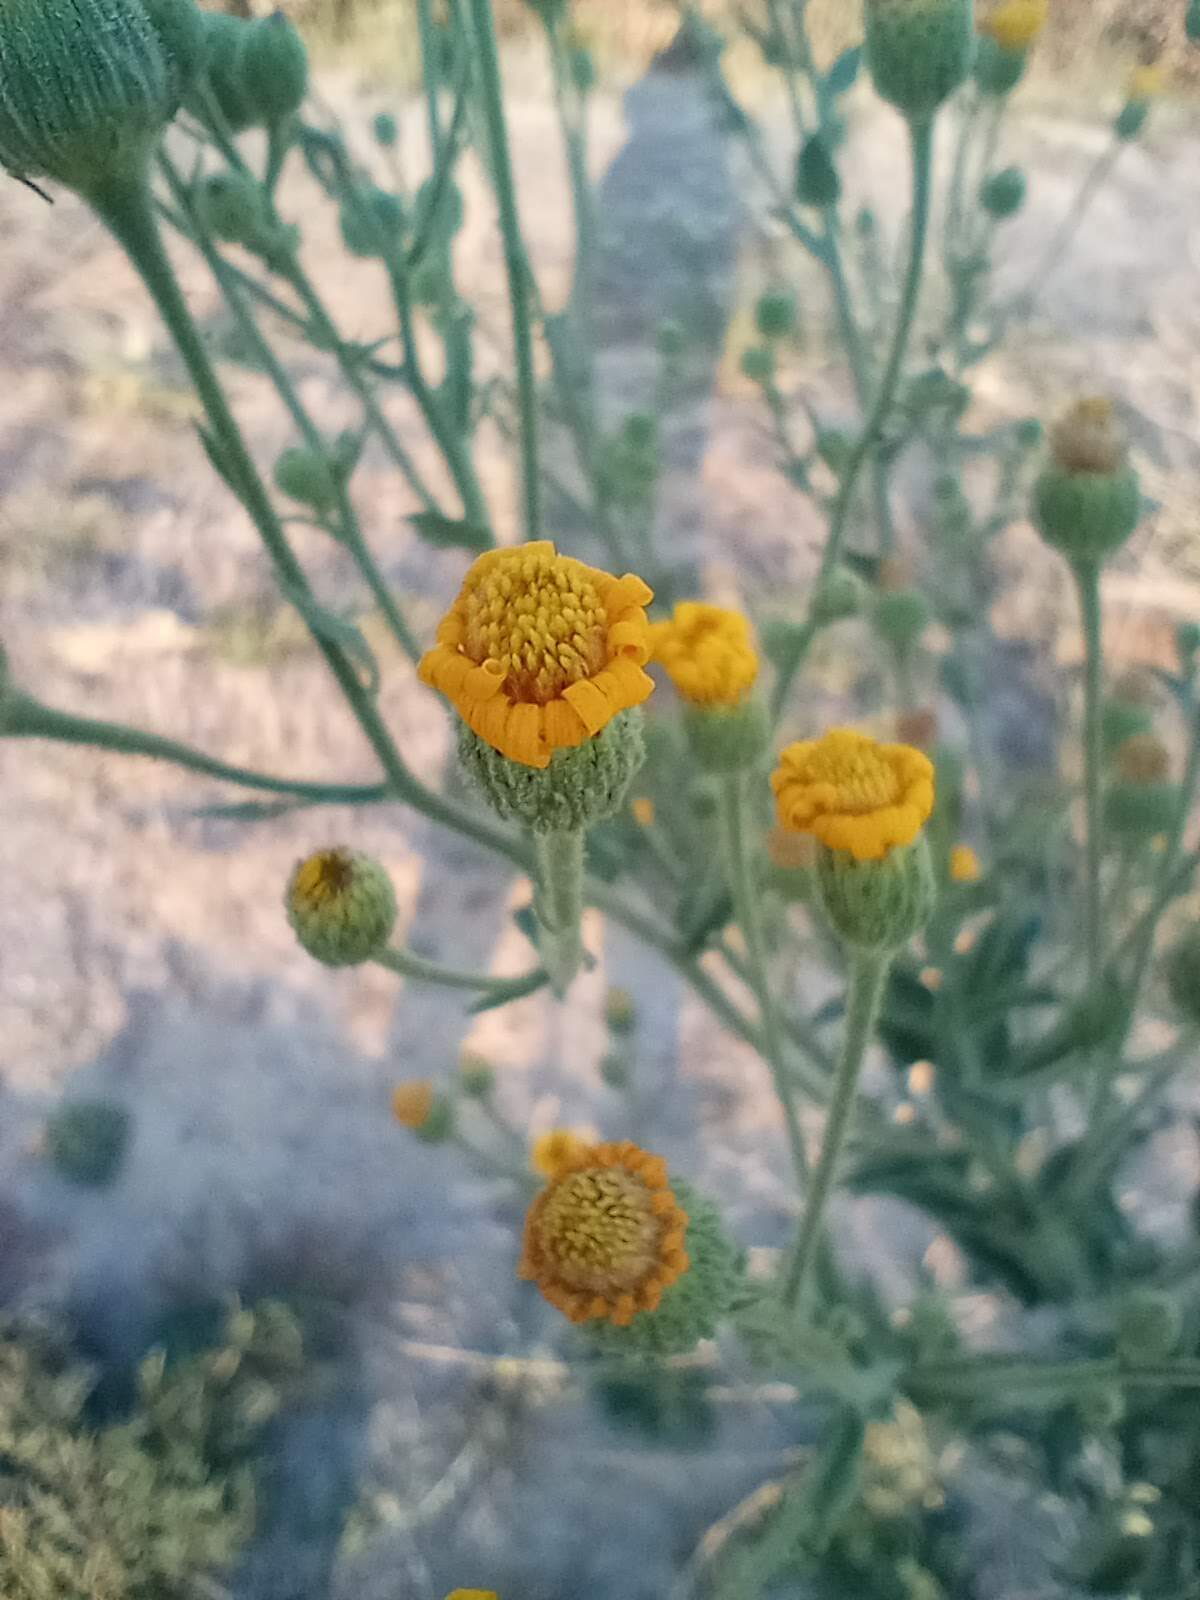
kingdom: Plantae
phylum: Tracheophyta
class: Magnoliopsida
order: Asterales
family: Asteraceae
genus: Heterotheca
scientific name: Heterotheca grandiflora
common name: Telegraphweed
